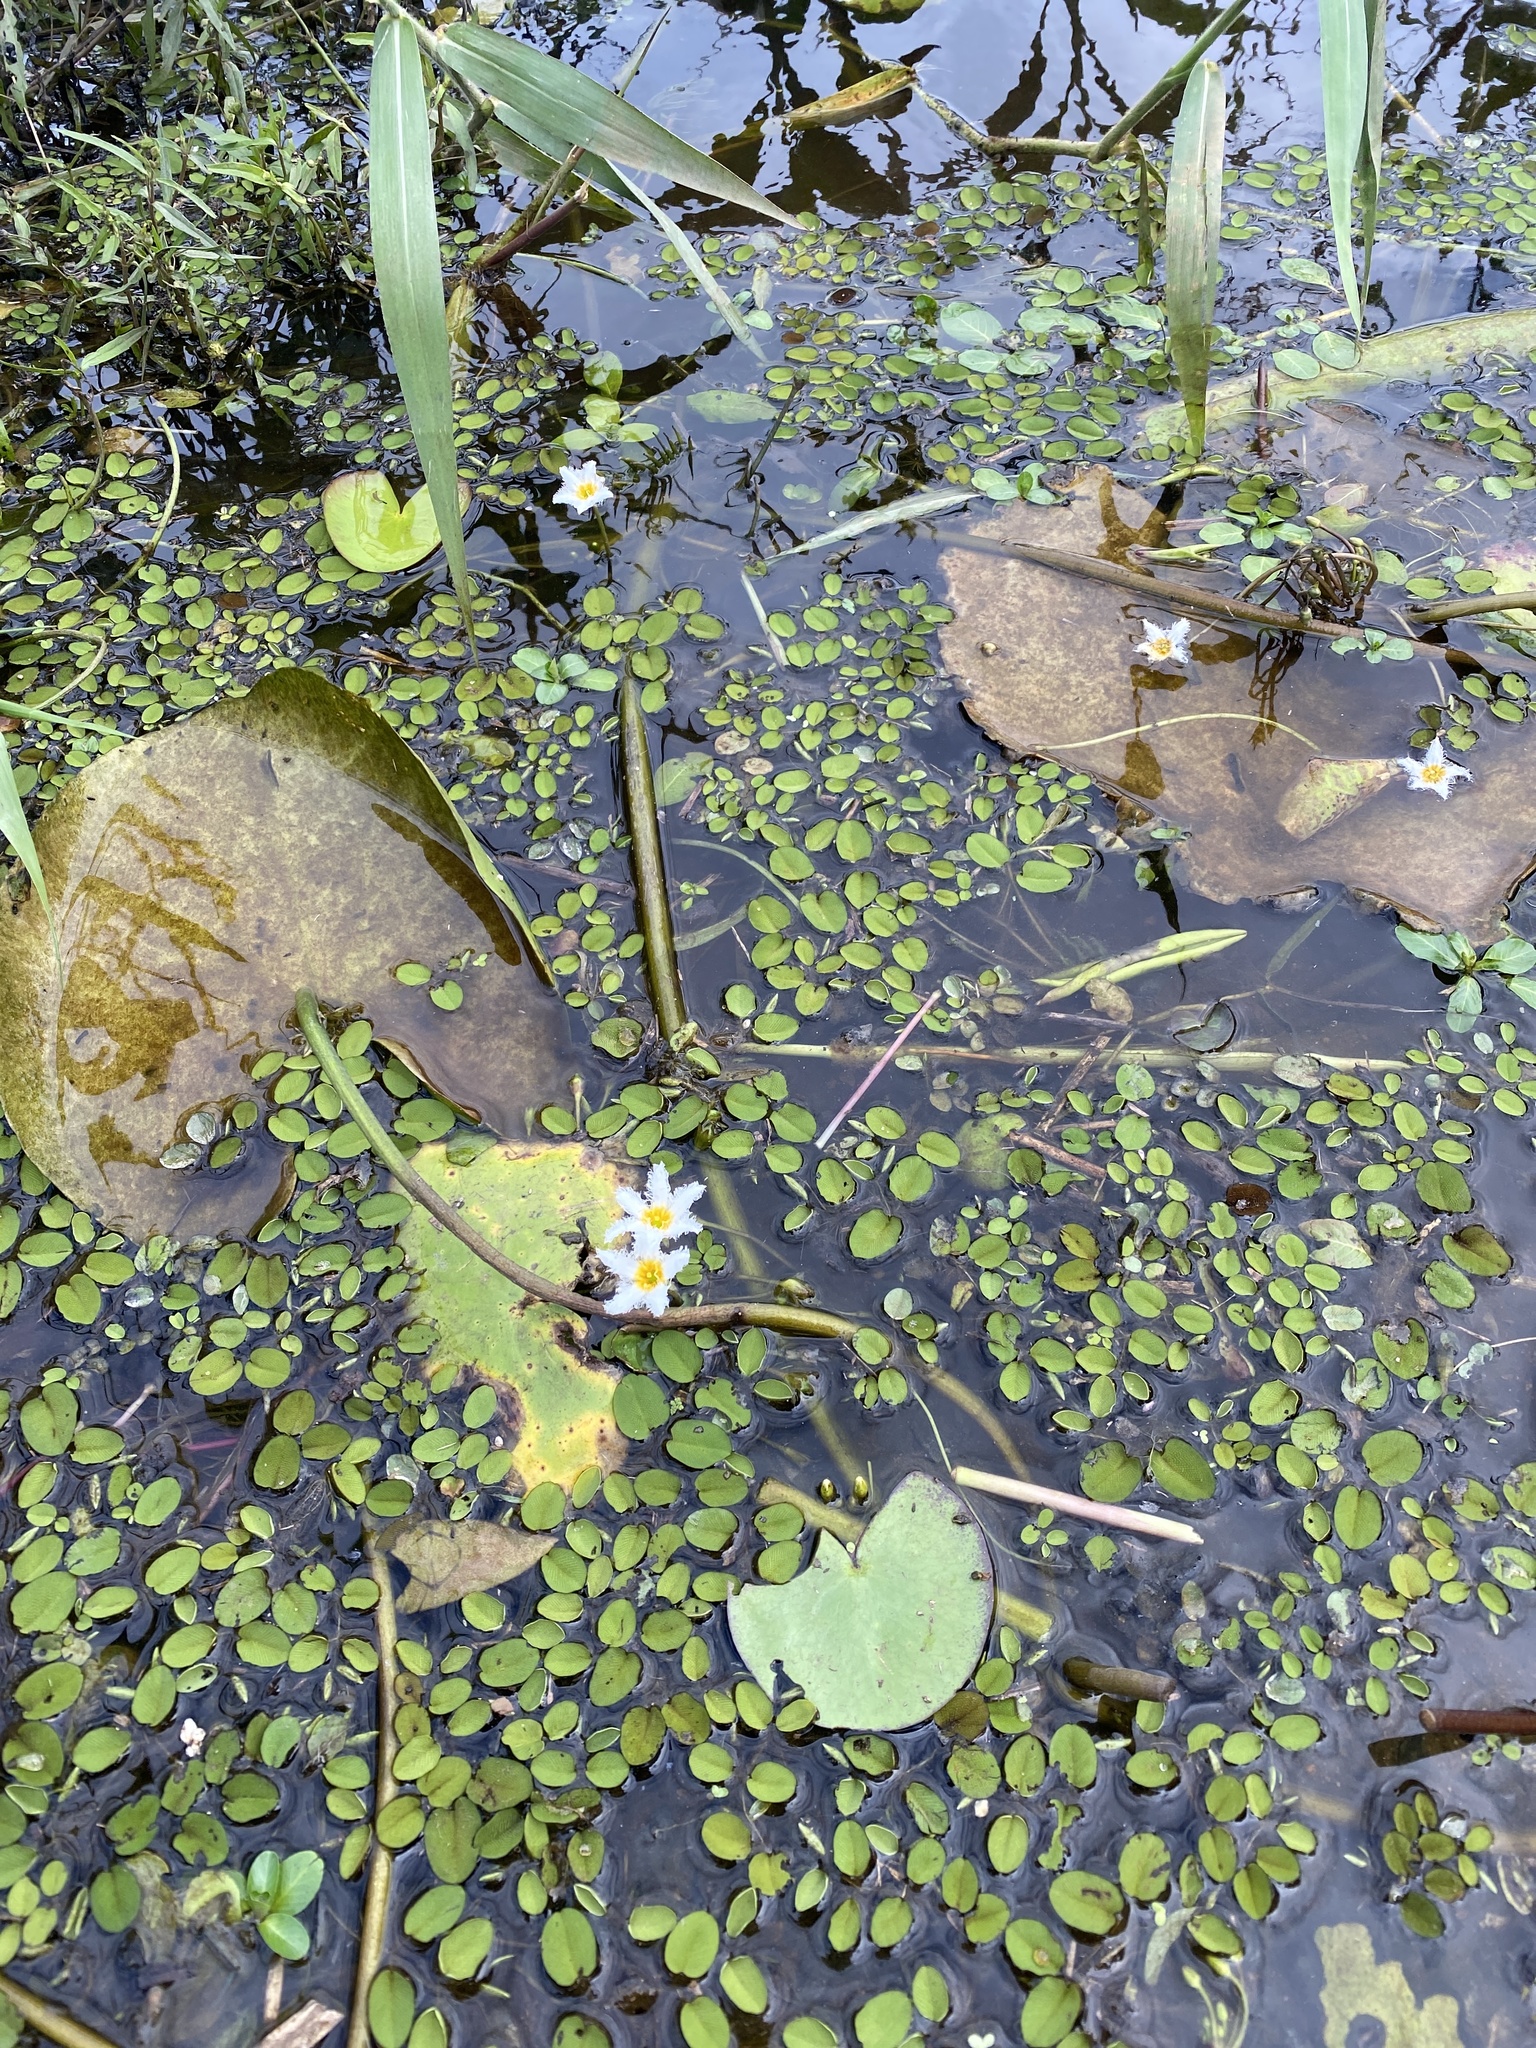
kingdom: Plantae
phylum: Tracheophyta
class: Magnoliopsida
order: Asterales
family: Menyanthaceae
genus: Nymphoides
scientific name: Nymphoides indica
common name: Water-snowflake
